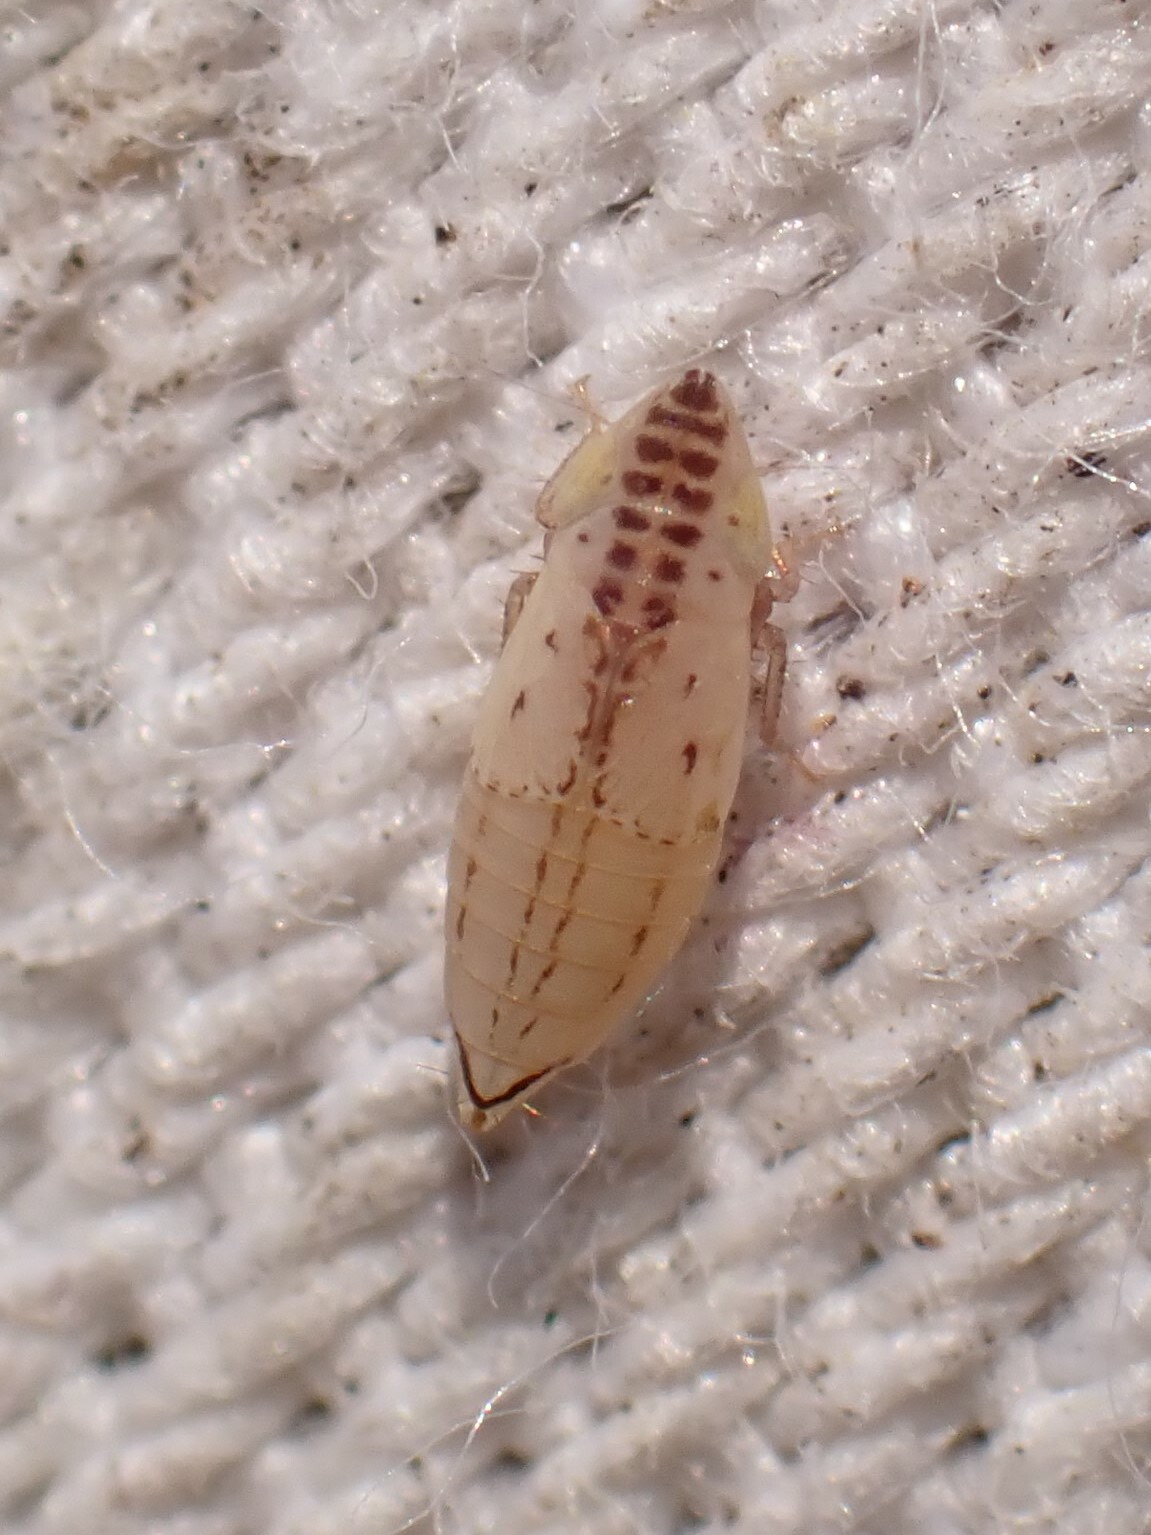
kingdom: Animalia
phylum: Arthropoda
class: Insecta
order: Hemiptera
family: Cicadellidae
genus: Aflexia
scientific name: Aflexia rubranura
